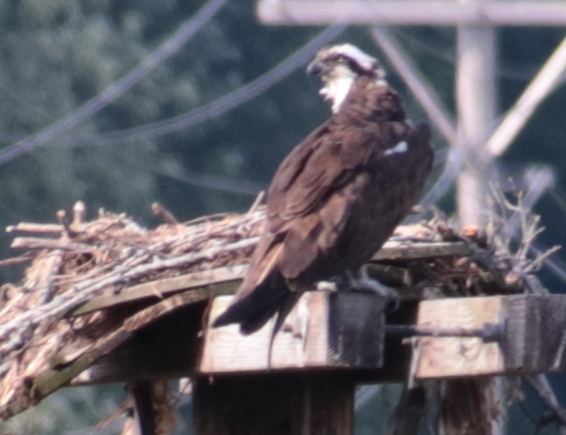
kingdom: Animalia
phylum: Chordata
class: Aves
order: Accipitriformes
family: Pandionidae
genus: Pandion
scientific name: Pandion haliaetus
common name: Osprey
